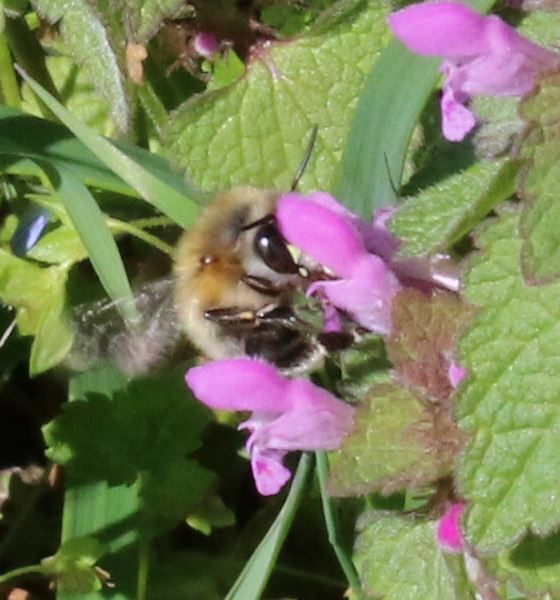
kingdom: Animalia
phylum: Arthropoda
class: Insecta
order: Hymenoptera
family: Apidae
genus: Anthophora
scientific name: Anthophora plumipes
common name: Hairy-footed flower bee
